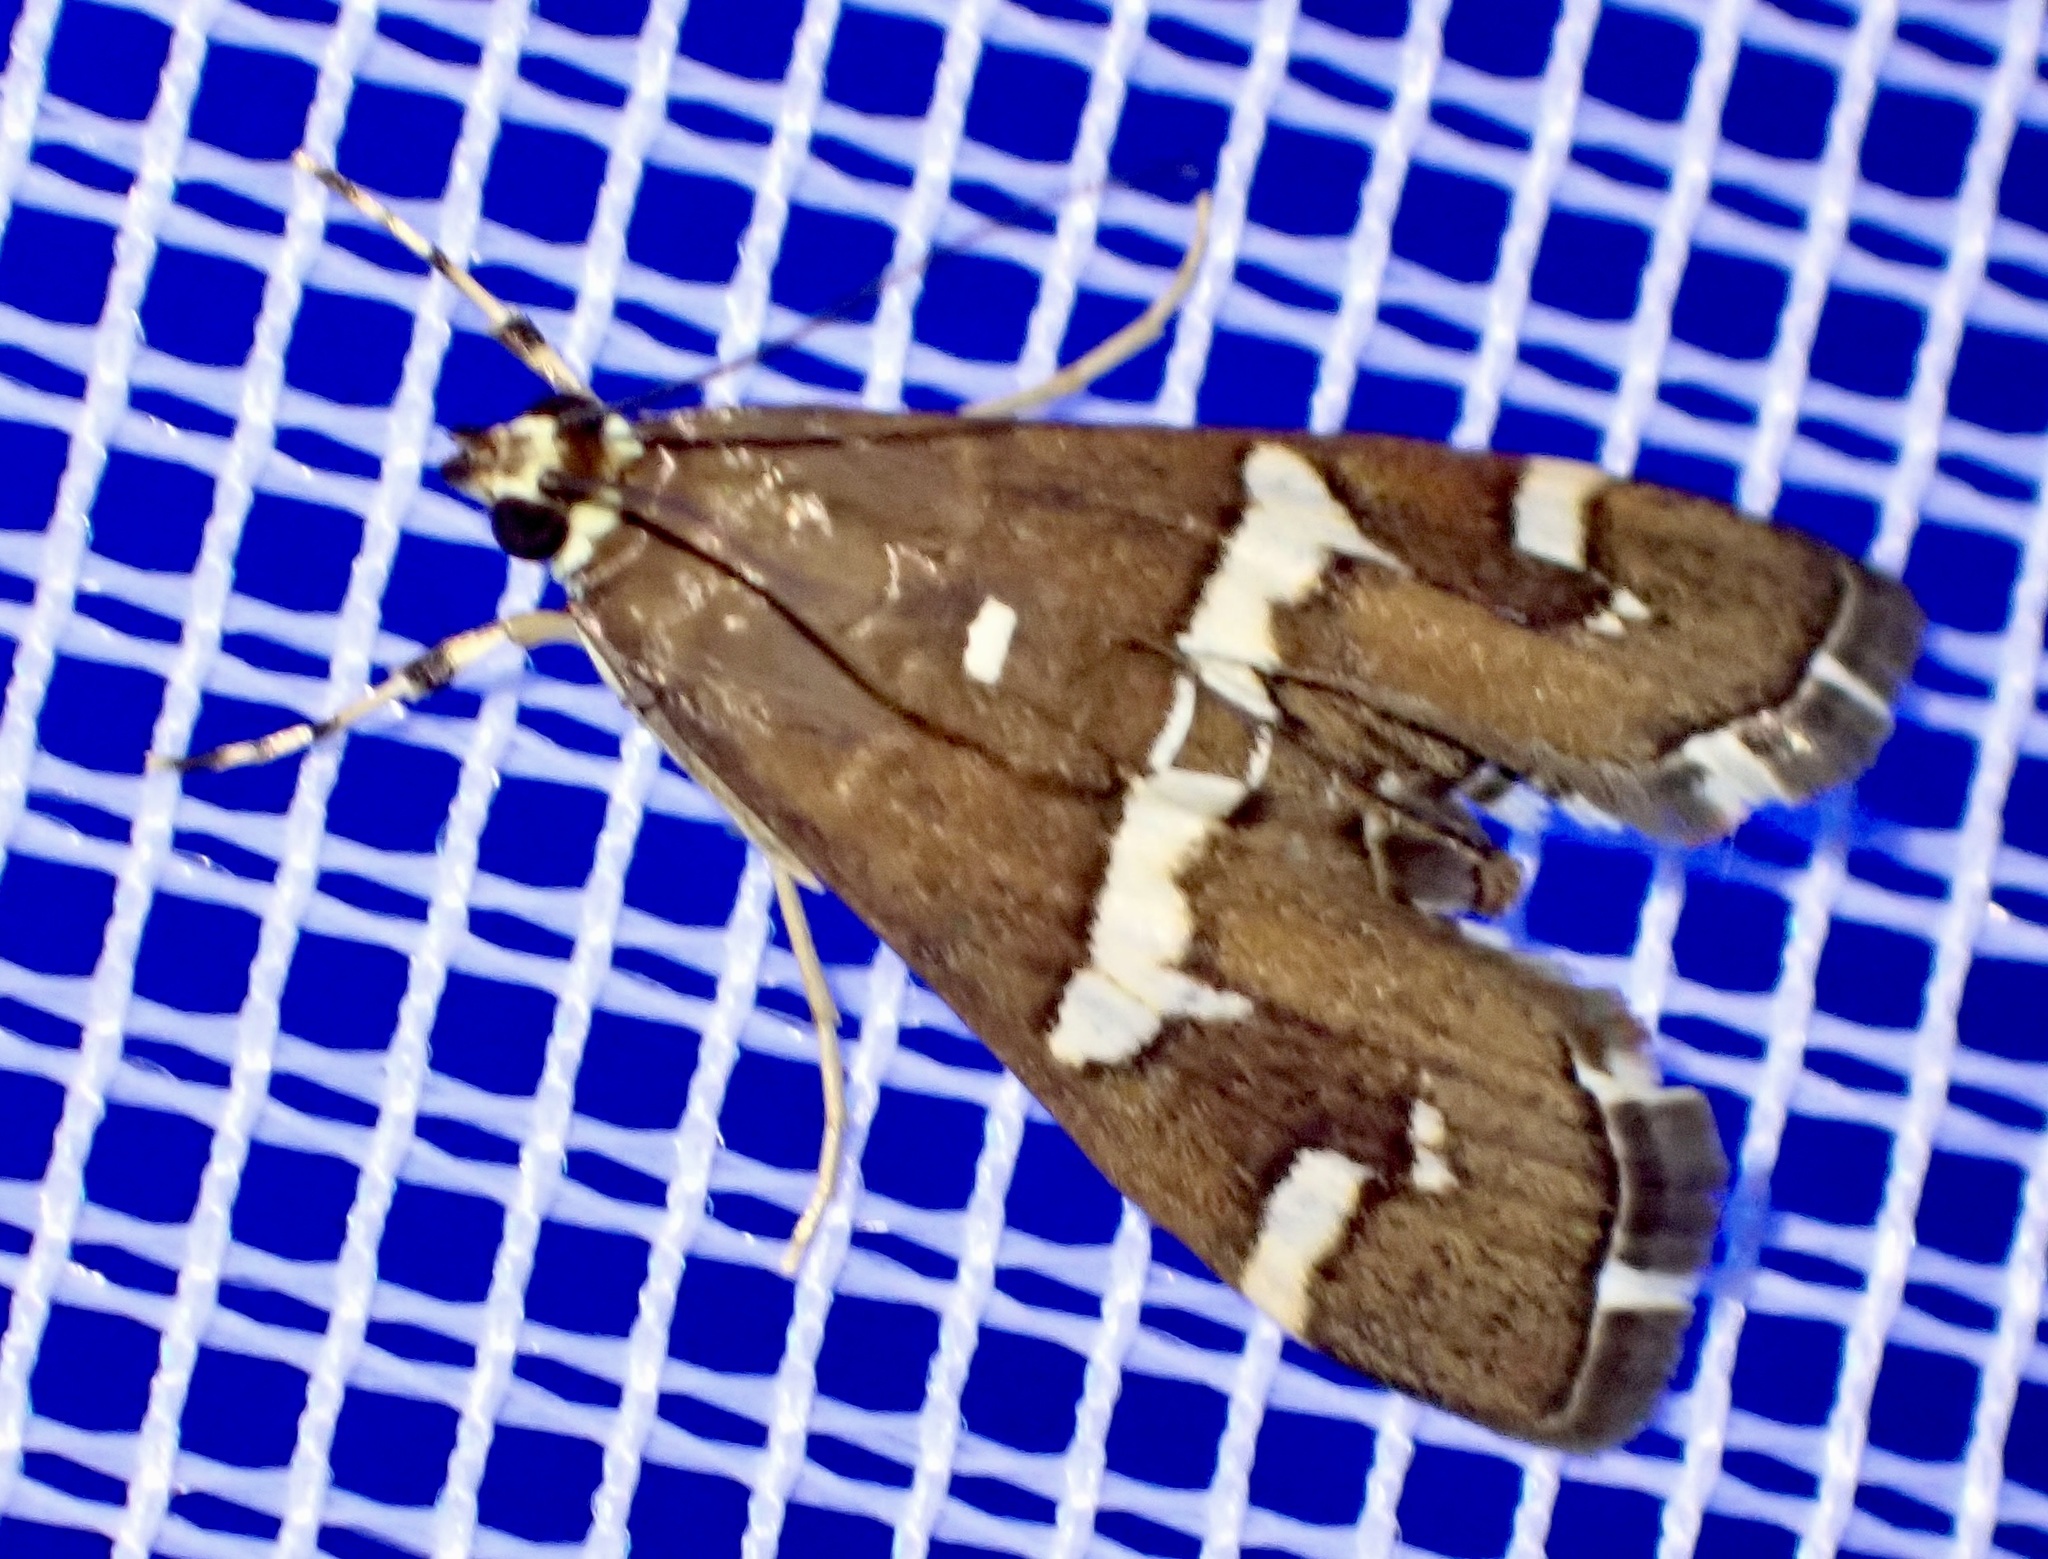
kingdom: Animalia
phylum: Arthropoda
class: Insecta
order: Lepidoptera
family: Crambidae
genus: Spoladea
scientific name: Spoladea recurvalis
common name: Beet webworm moth
